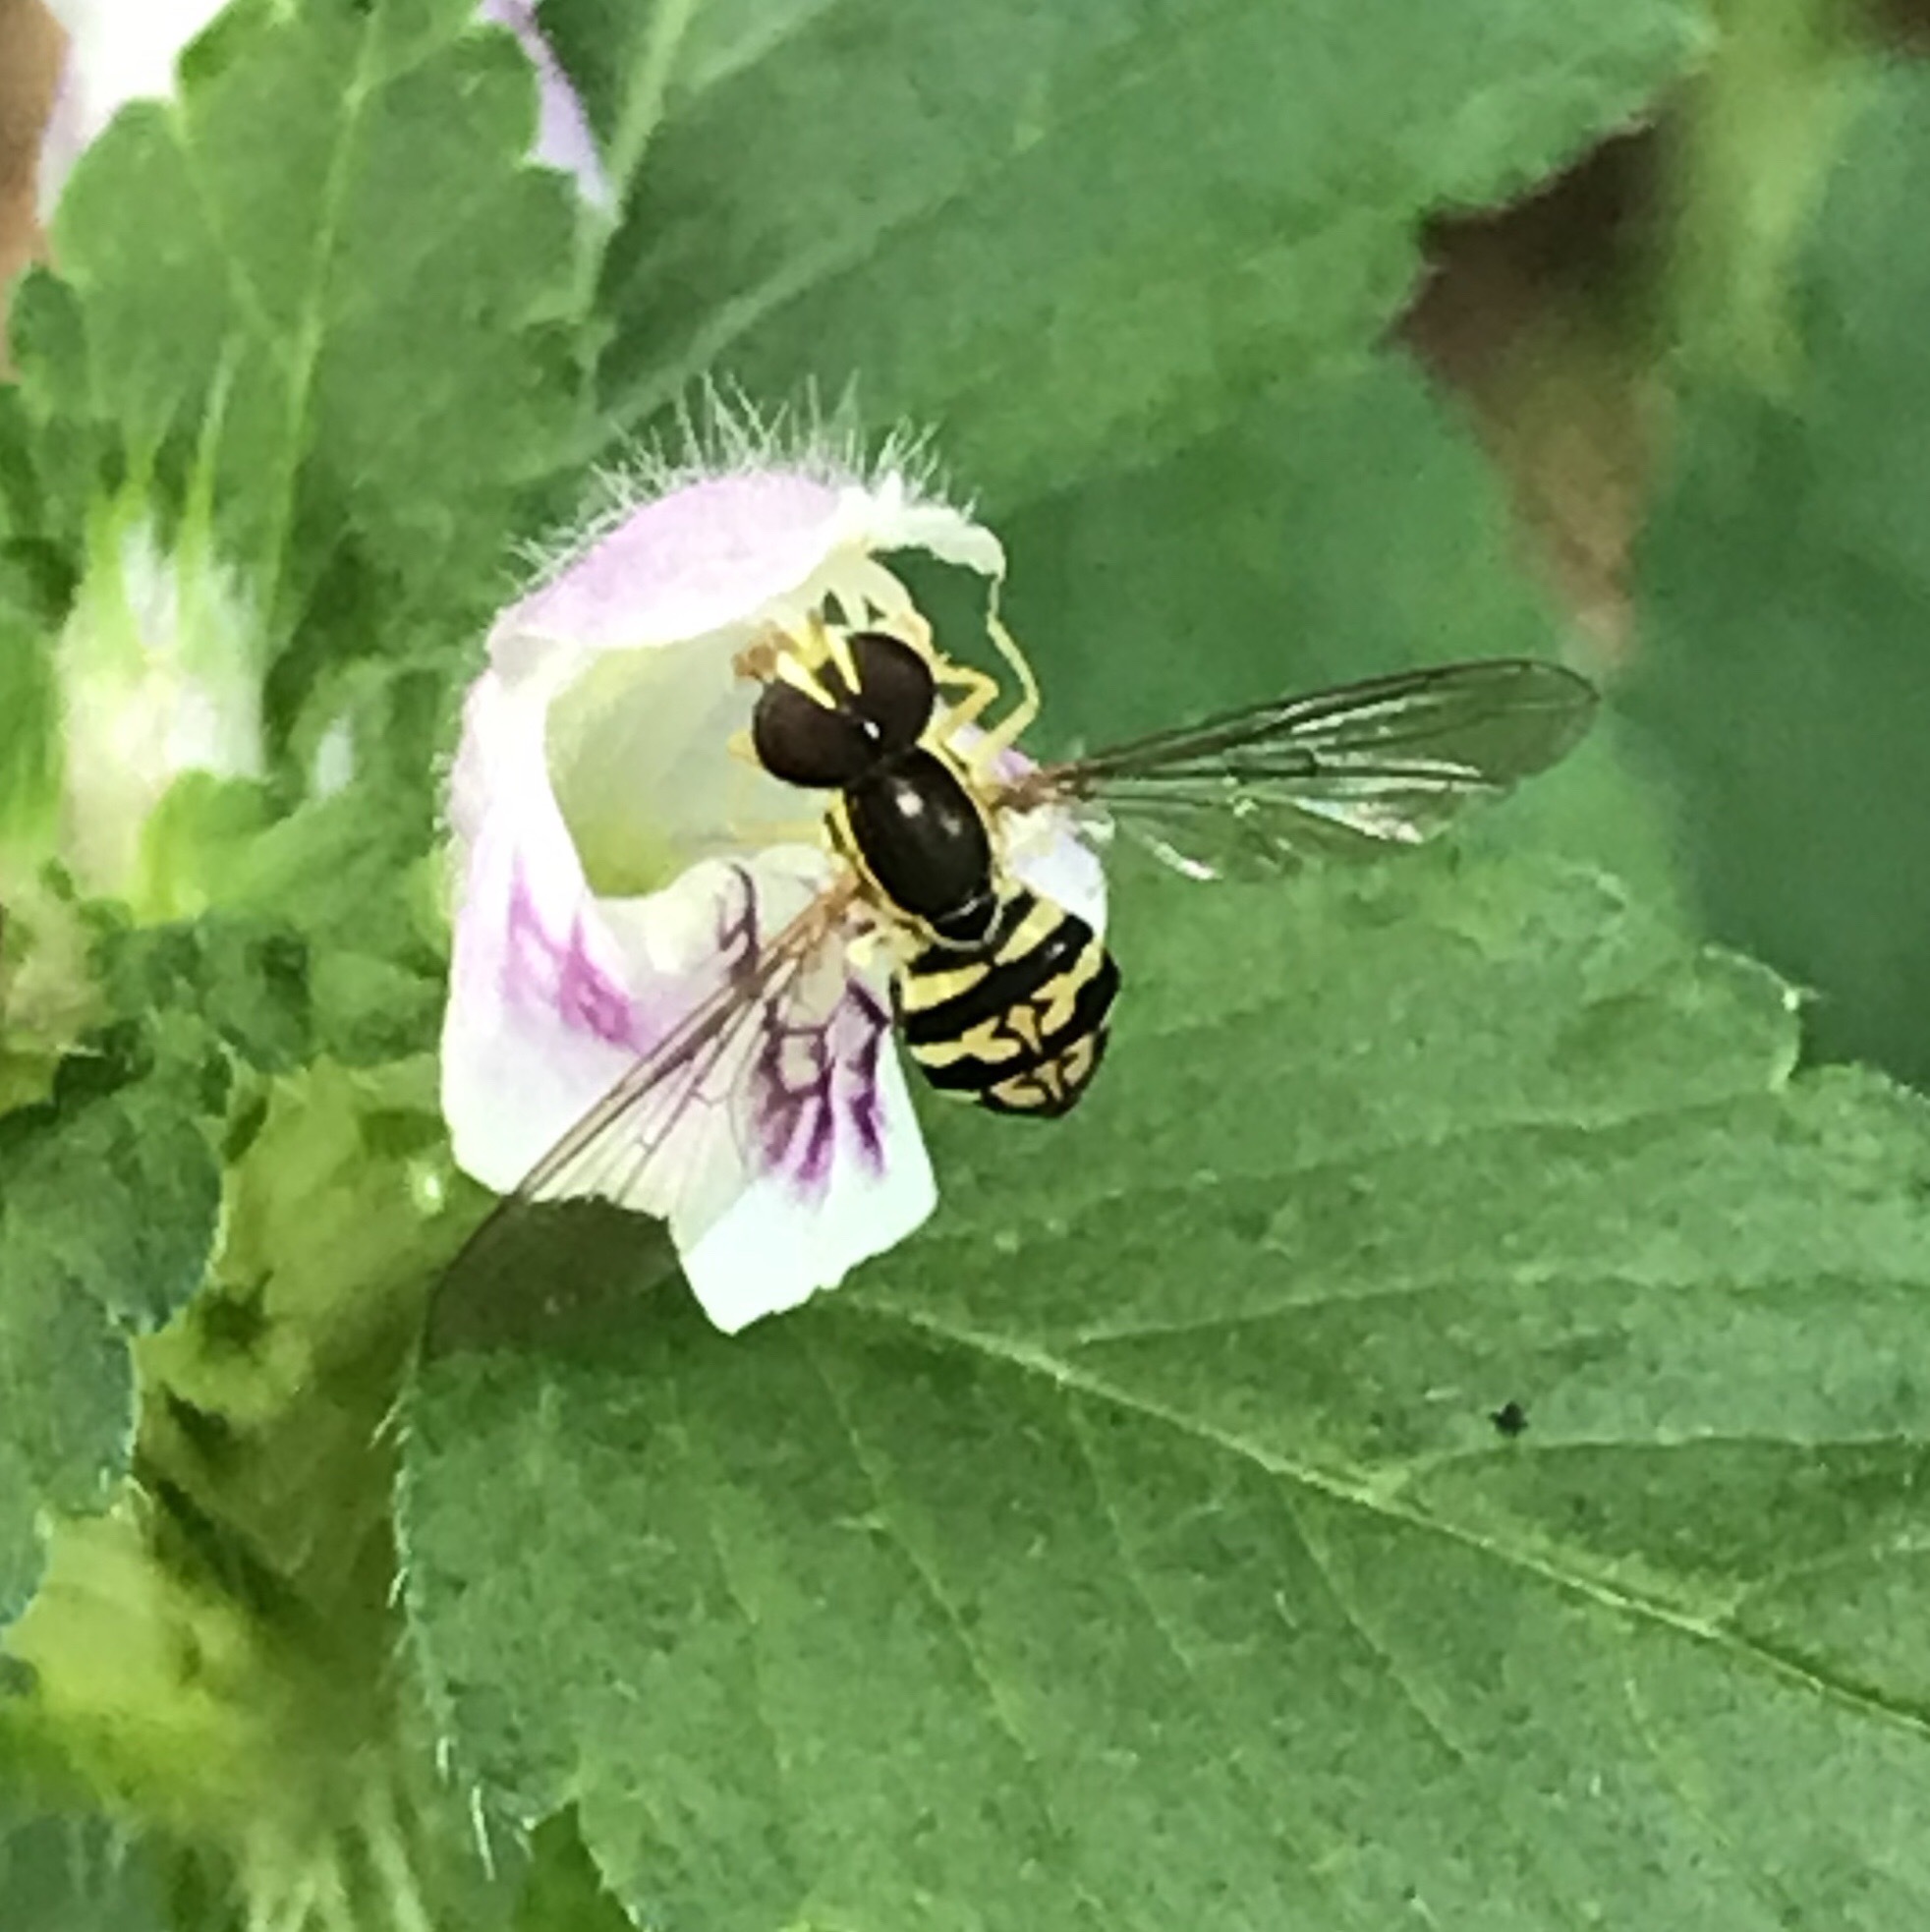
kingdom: Animalia
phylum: Arthropoda
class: Insecta
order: Diptera
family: Syrphidae
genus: Toxomerus
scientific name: Toxomerus geminatus
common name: Eastern calligrapher
